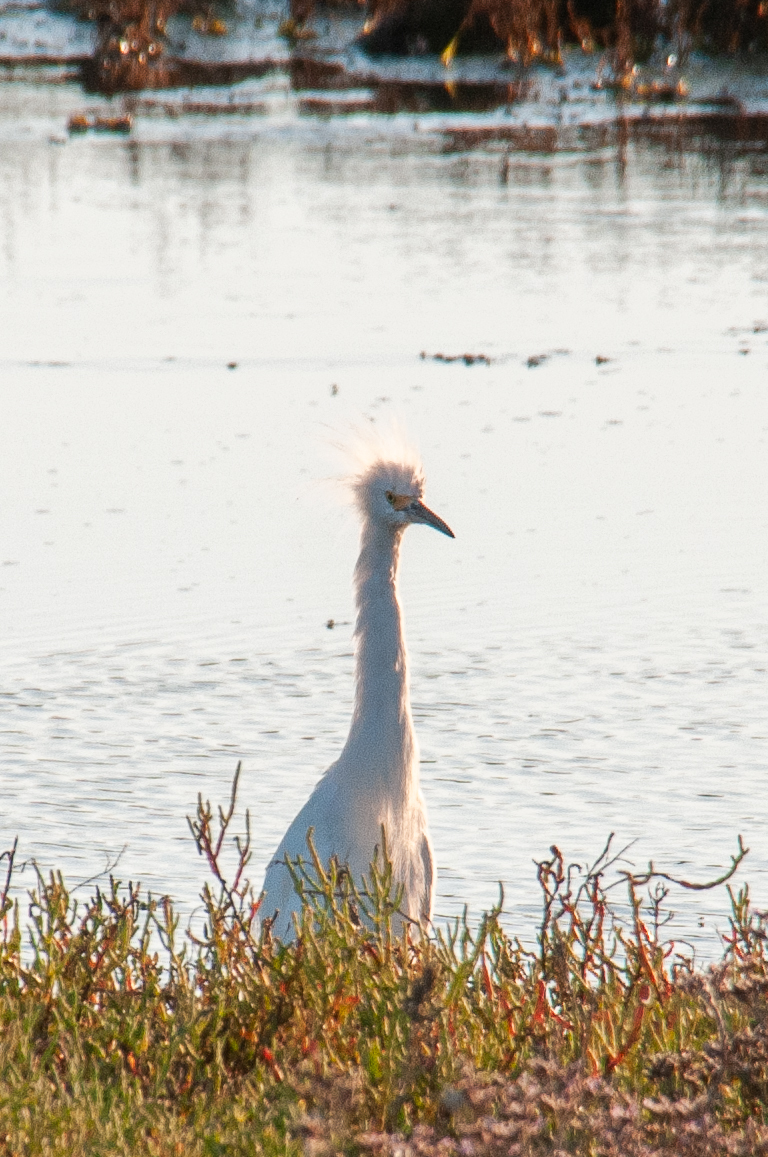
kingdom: Animalia
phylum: Chordata
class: Aves
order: Pelecaniformes
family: Ardeidae
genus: Egretta
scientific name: Egretta thula
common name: Snowy egret
